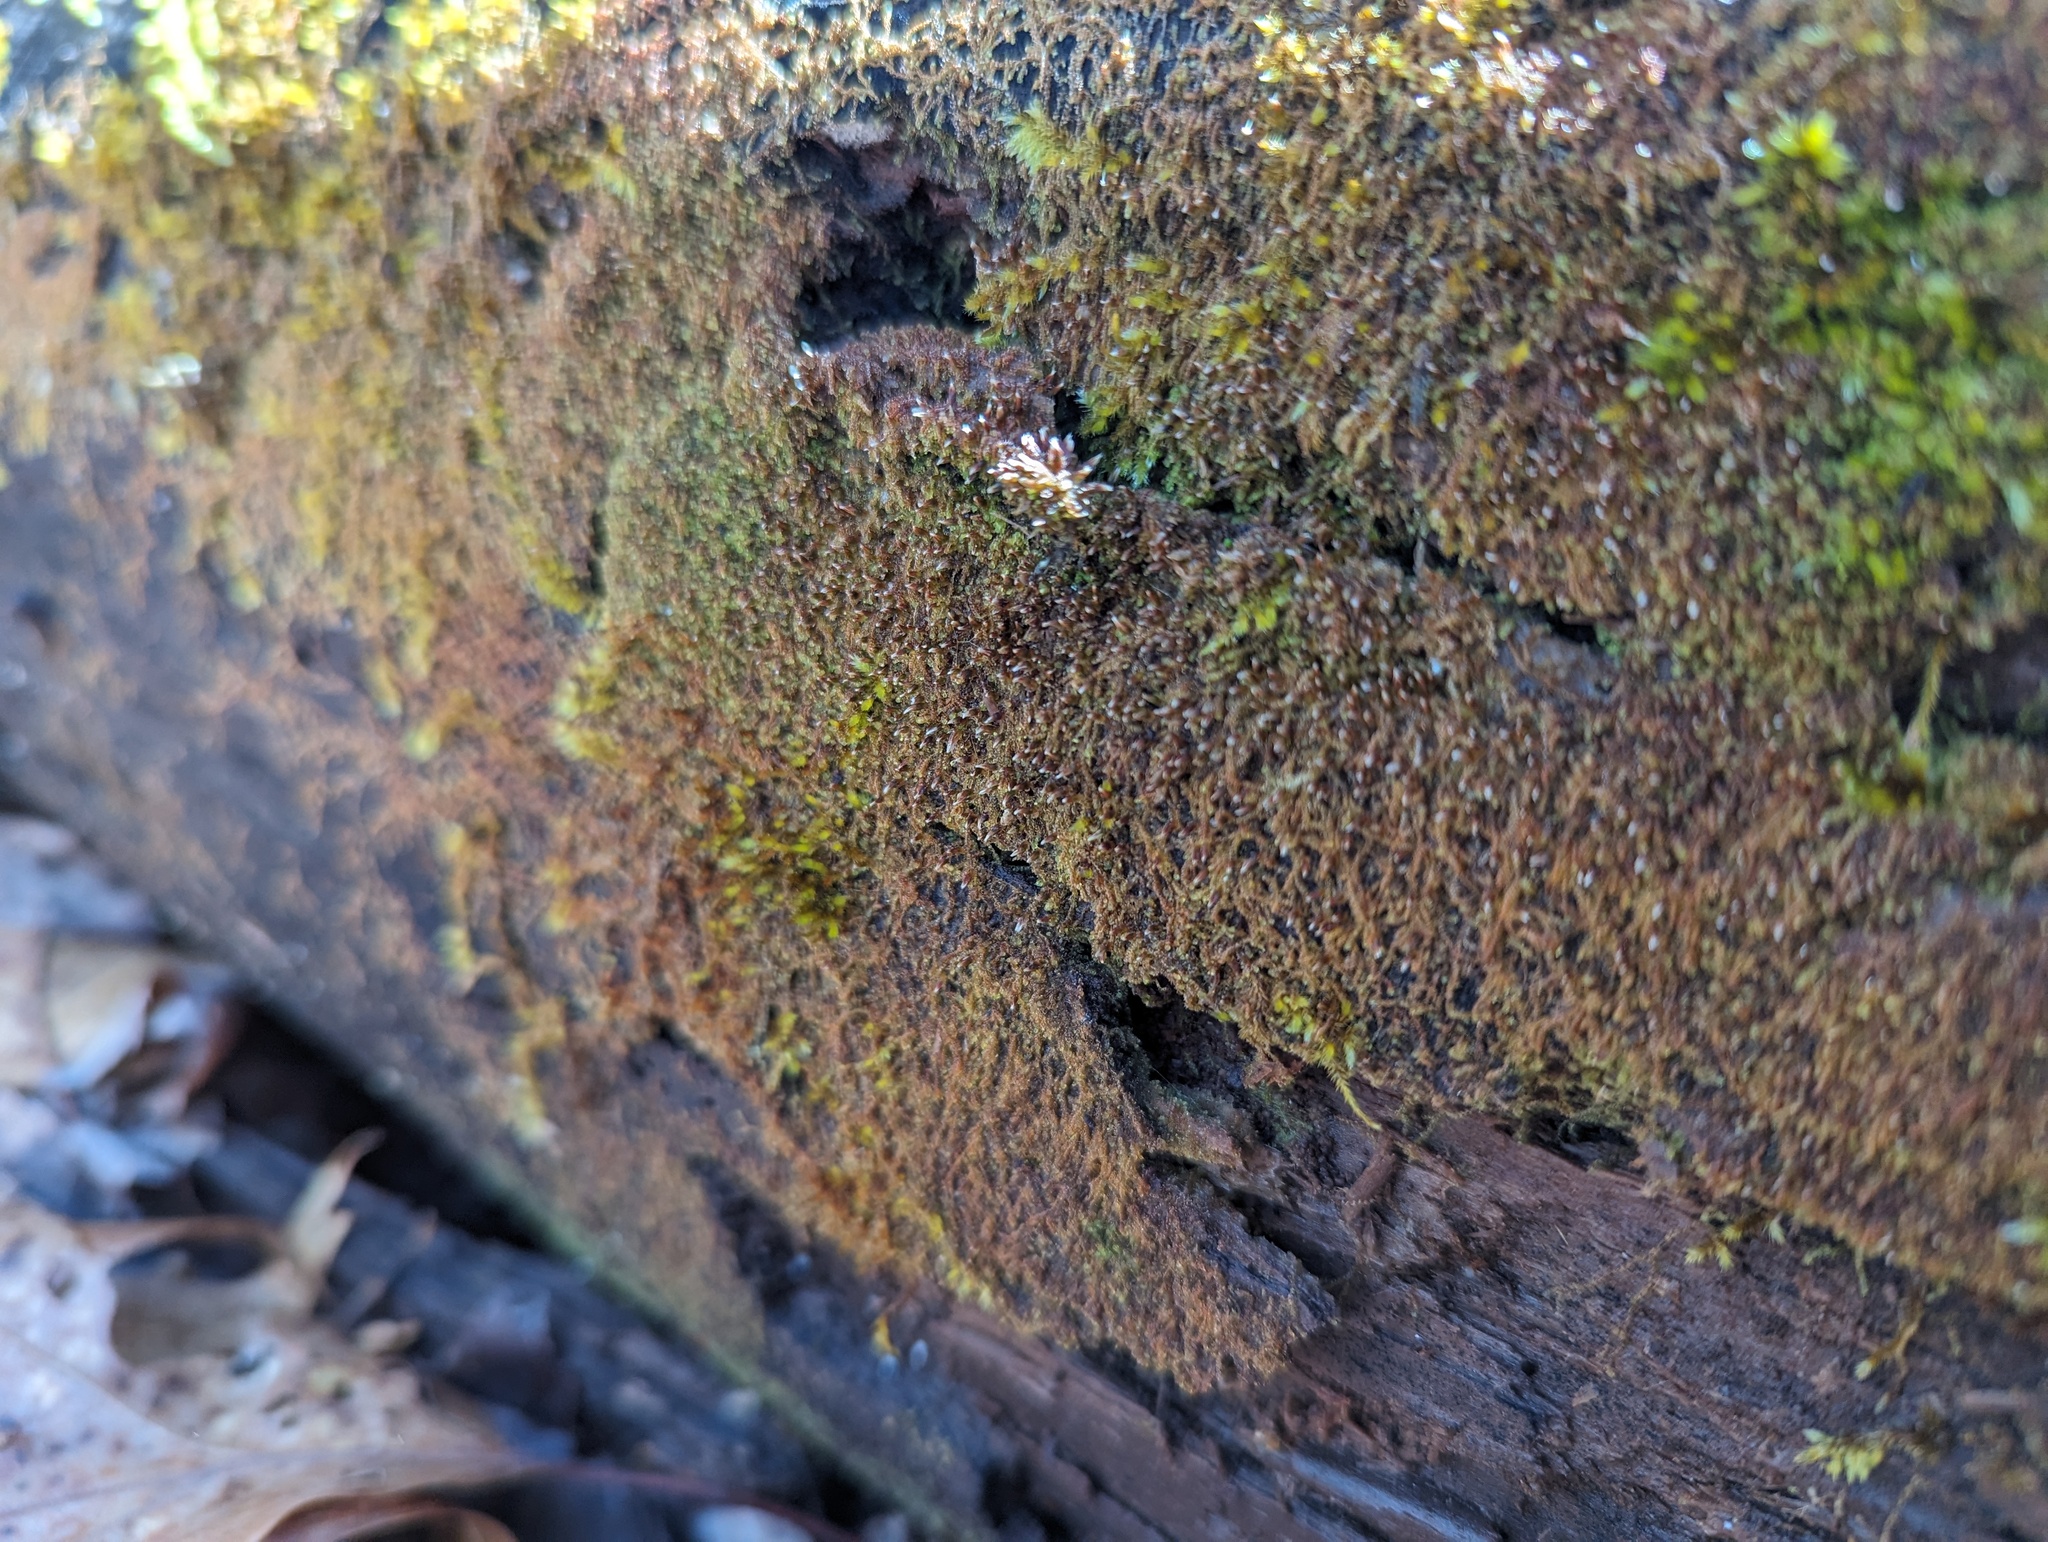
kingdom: Plantae
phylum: Marchantiophyta
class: Jungermanniopsida
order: Jungermanniales
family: Cephaloziaceae
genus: Nowellia
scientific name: Nowellia curvifolia
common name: Wood rustwort
